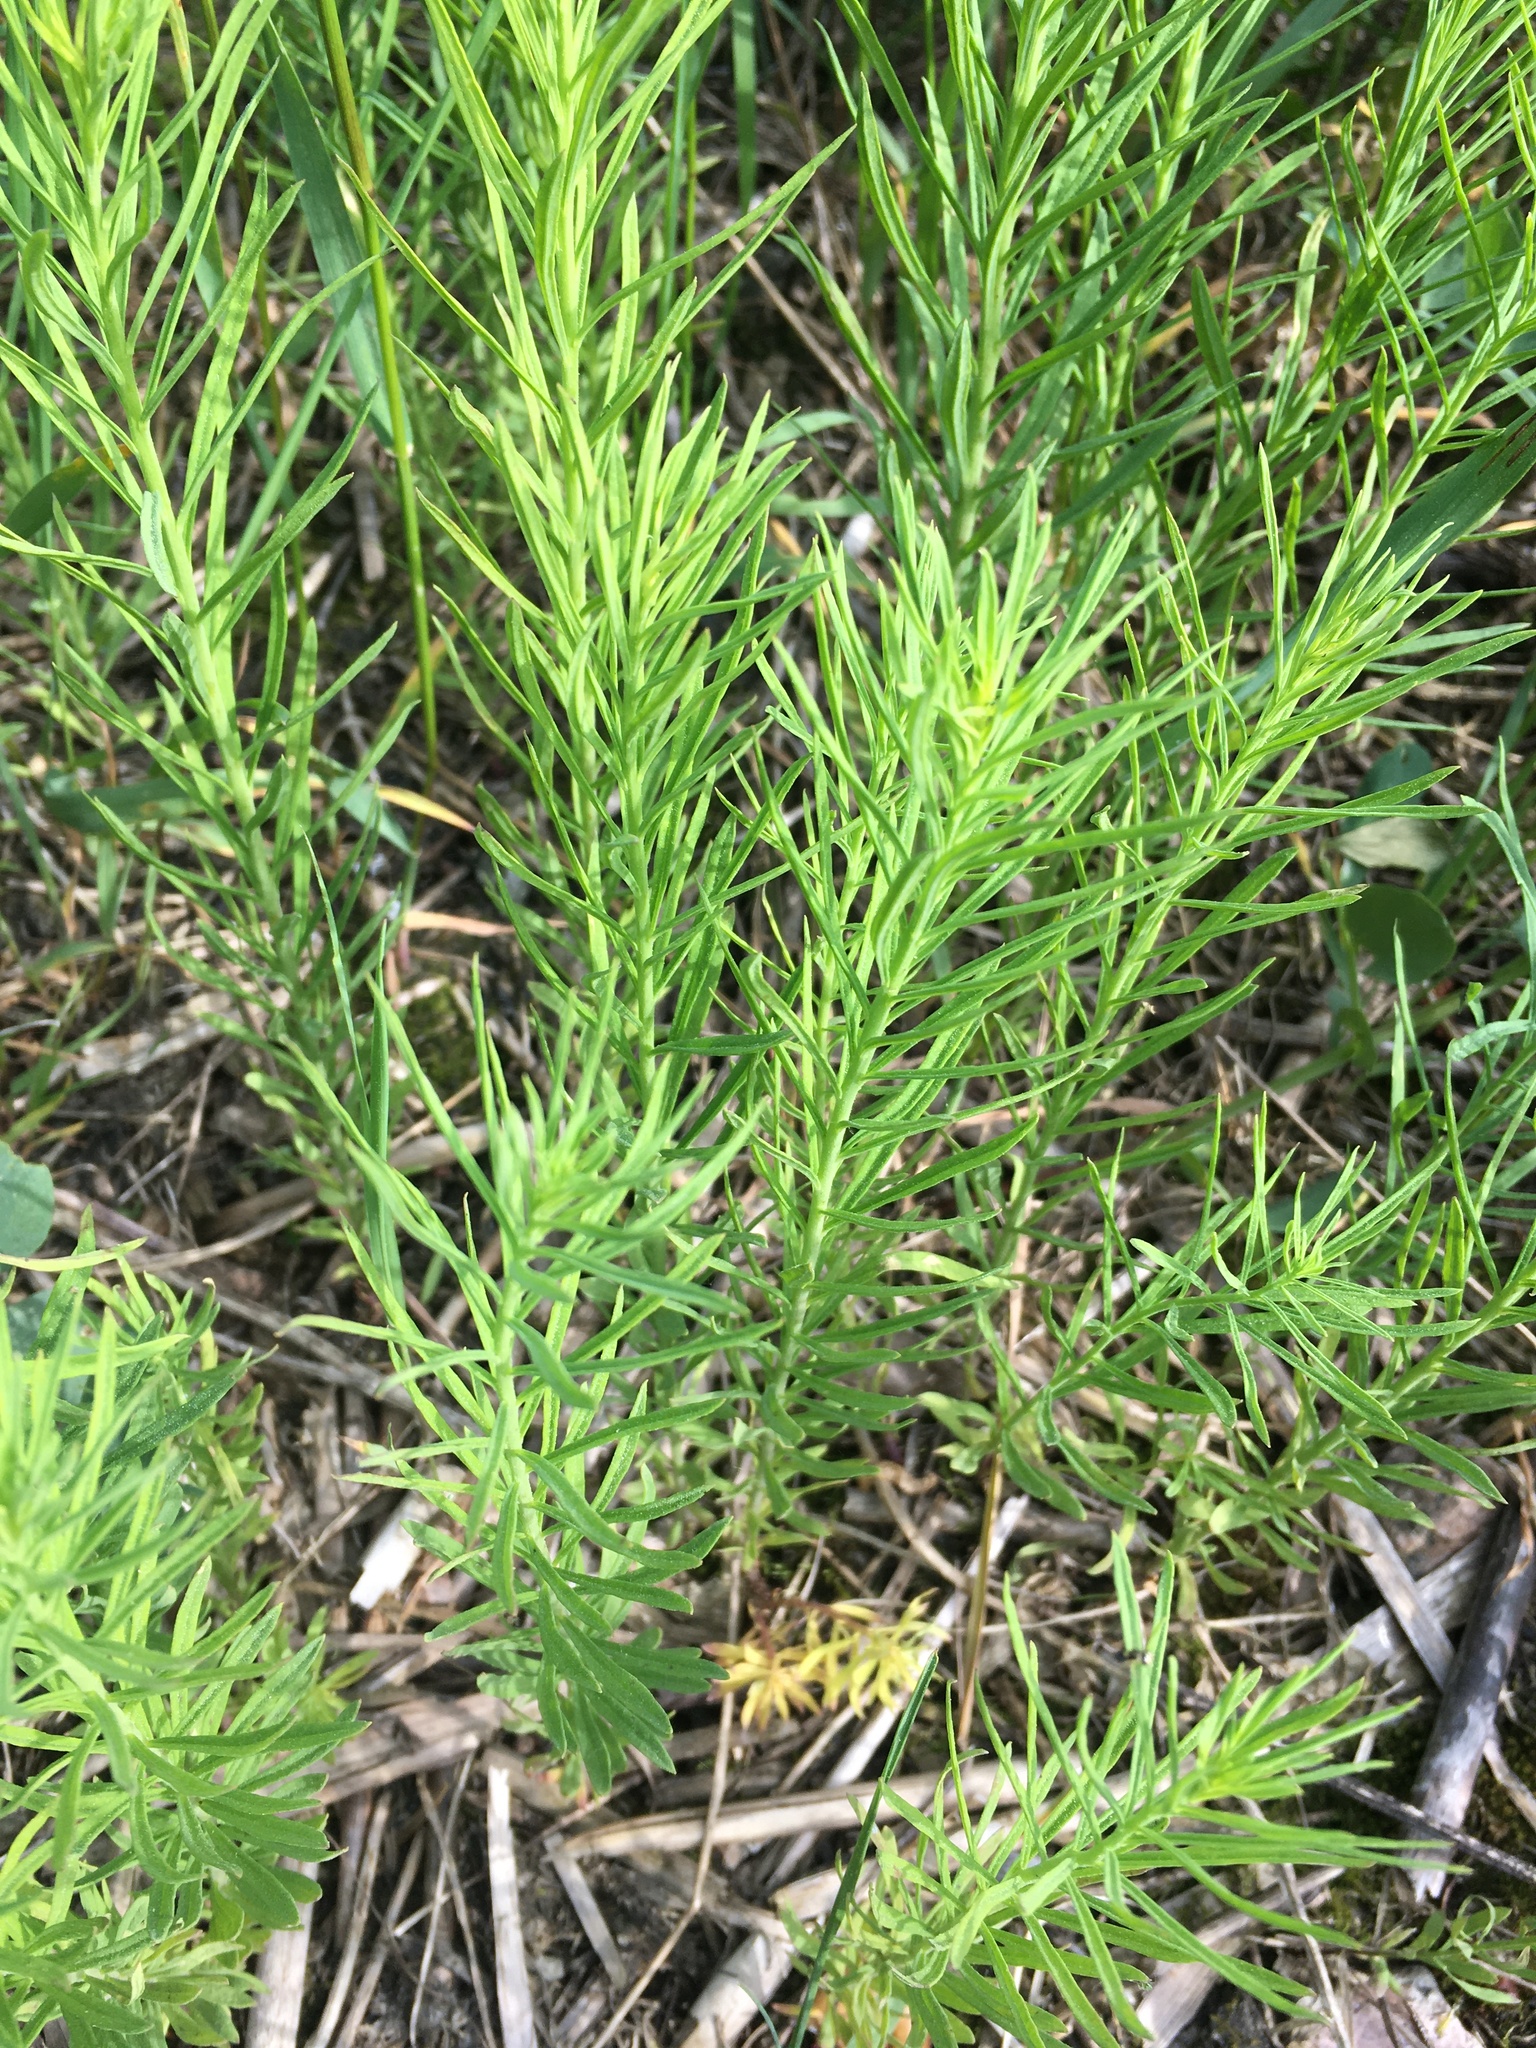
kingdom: Plantae
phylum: Tracheophyta
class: Magnoliopsida
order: Lamiales
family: Plantaginaceae
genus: Linaria
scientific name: Linaria vulgaris
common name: Butter and eggs
